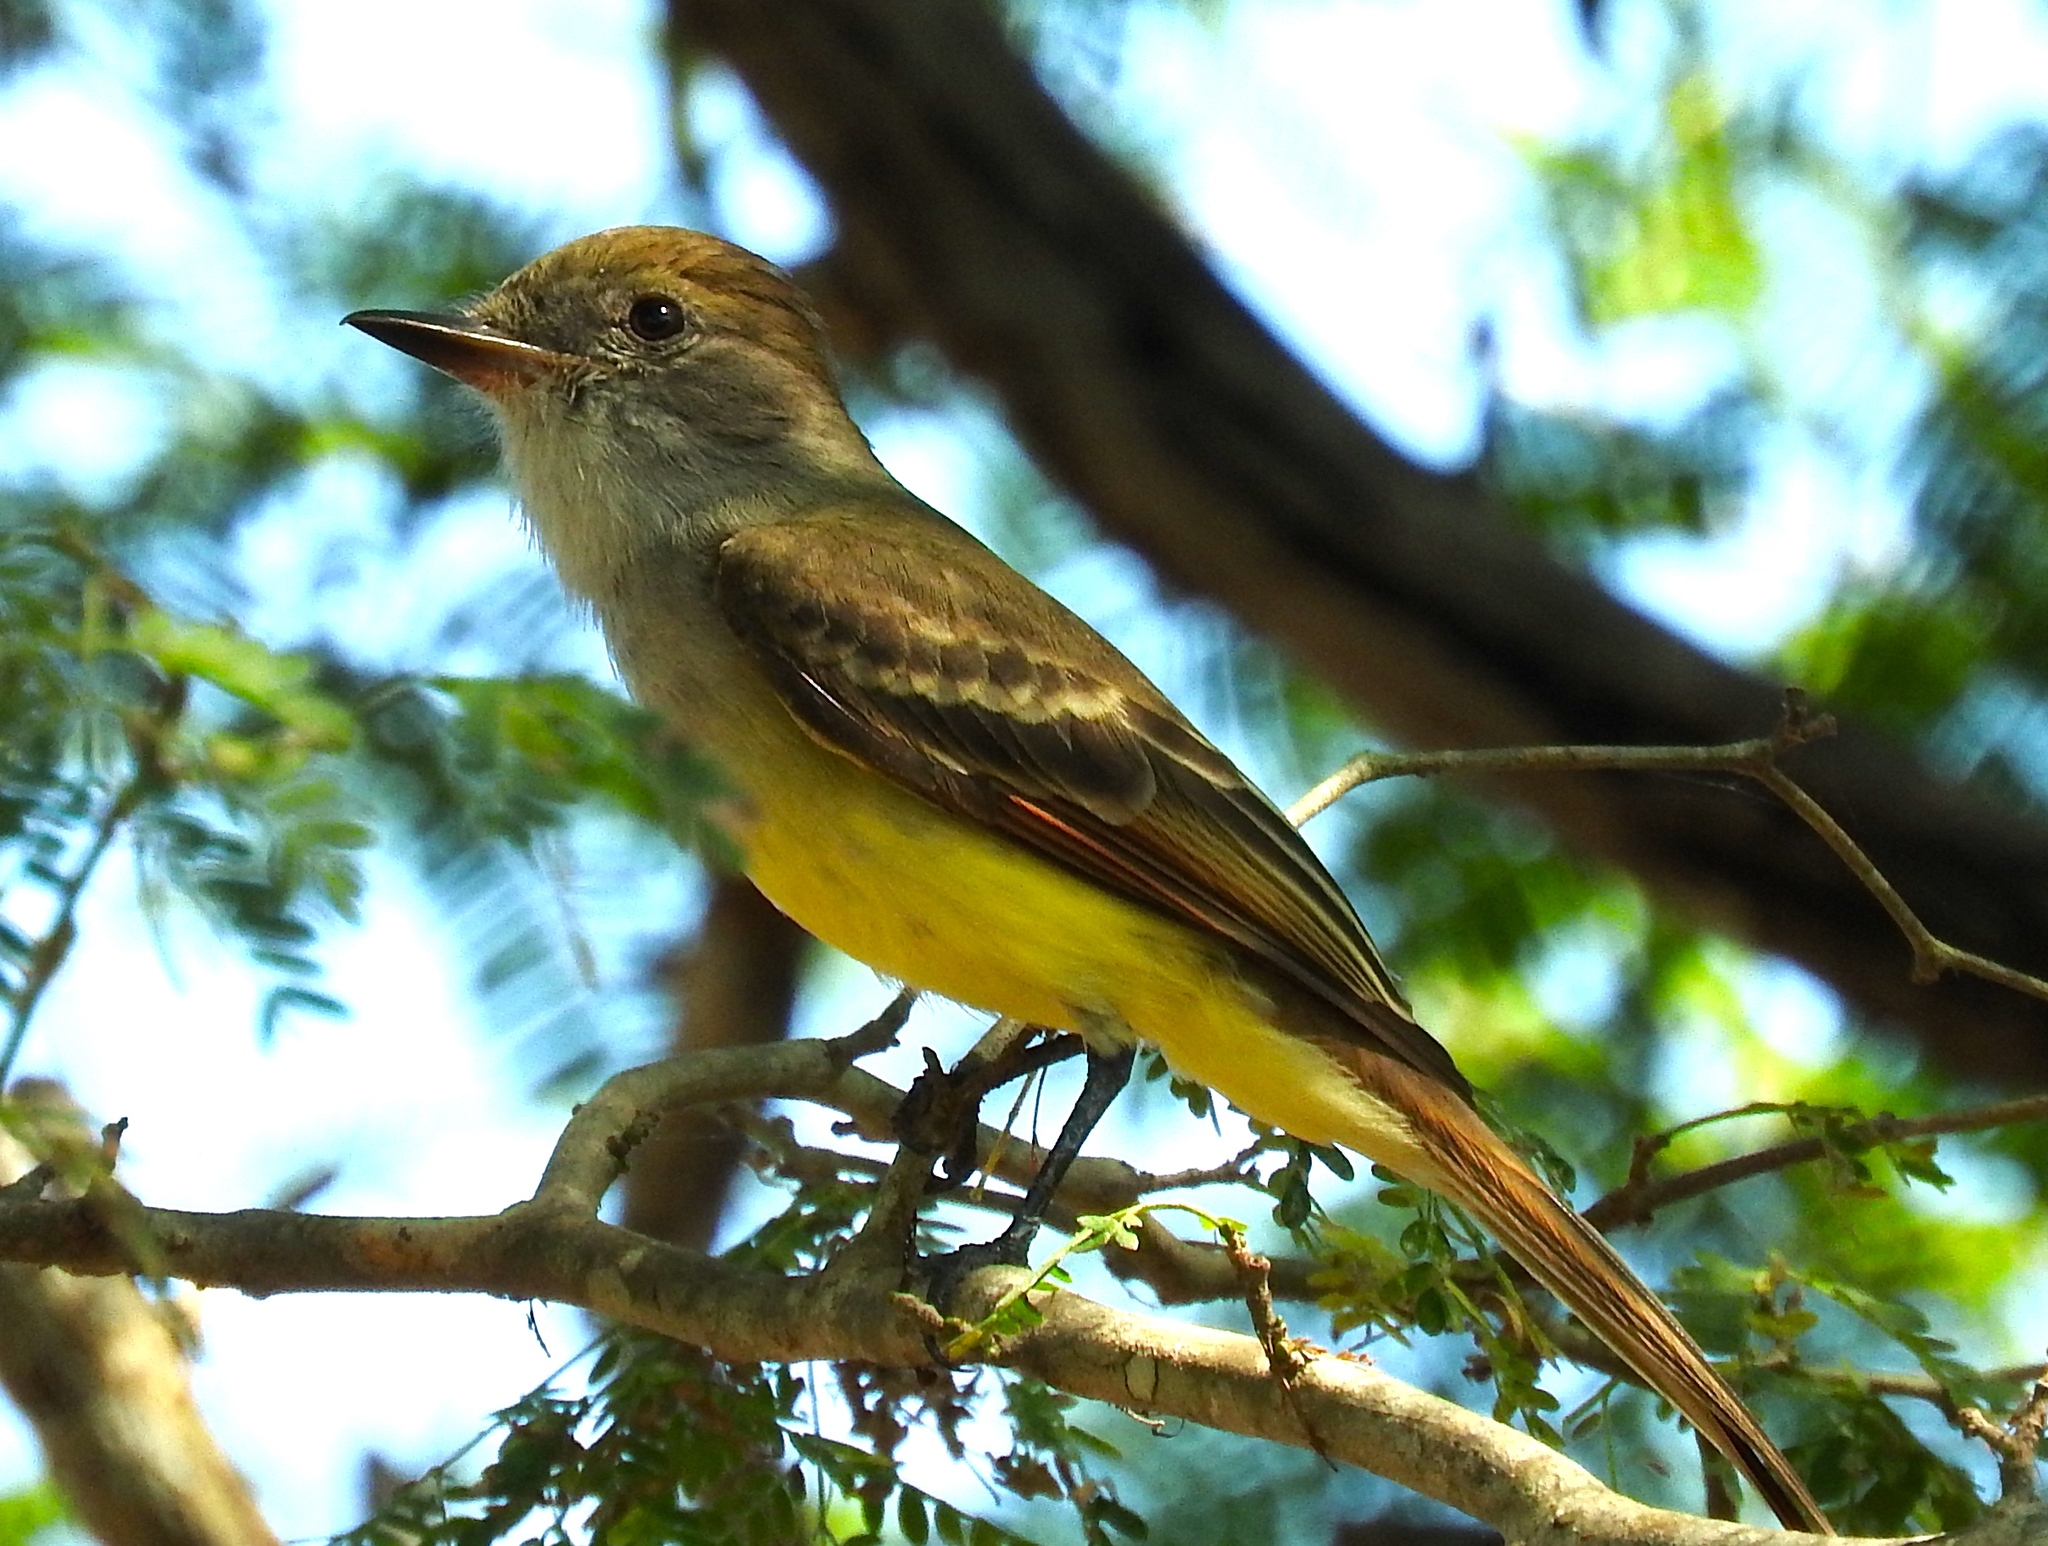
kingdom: Animalia
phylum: Chordata
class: Aves
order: Passeriformes
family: Tyrannidae
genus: Myiarchus
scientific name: Myiarchus
